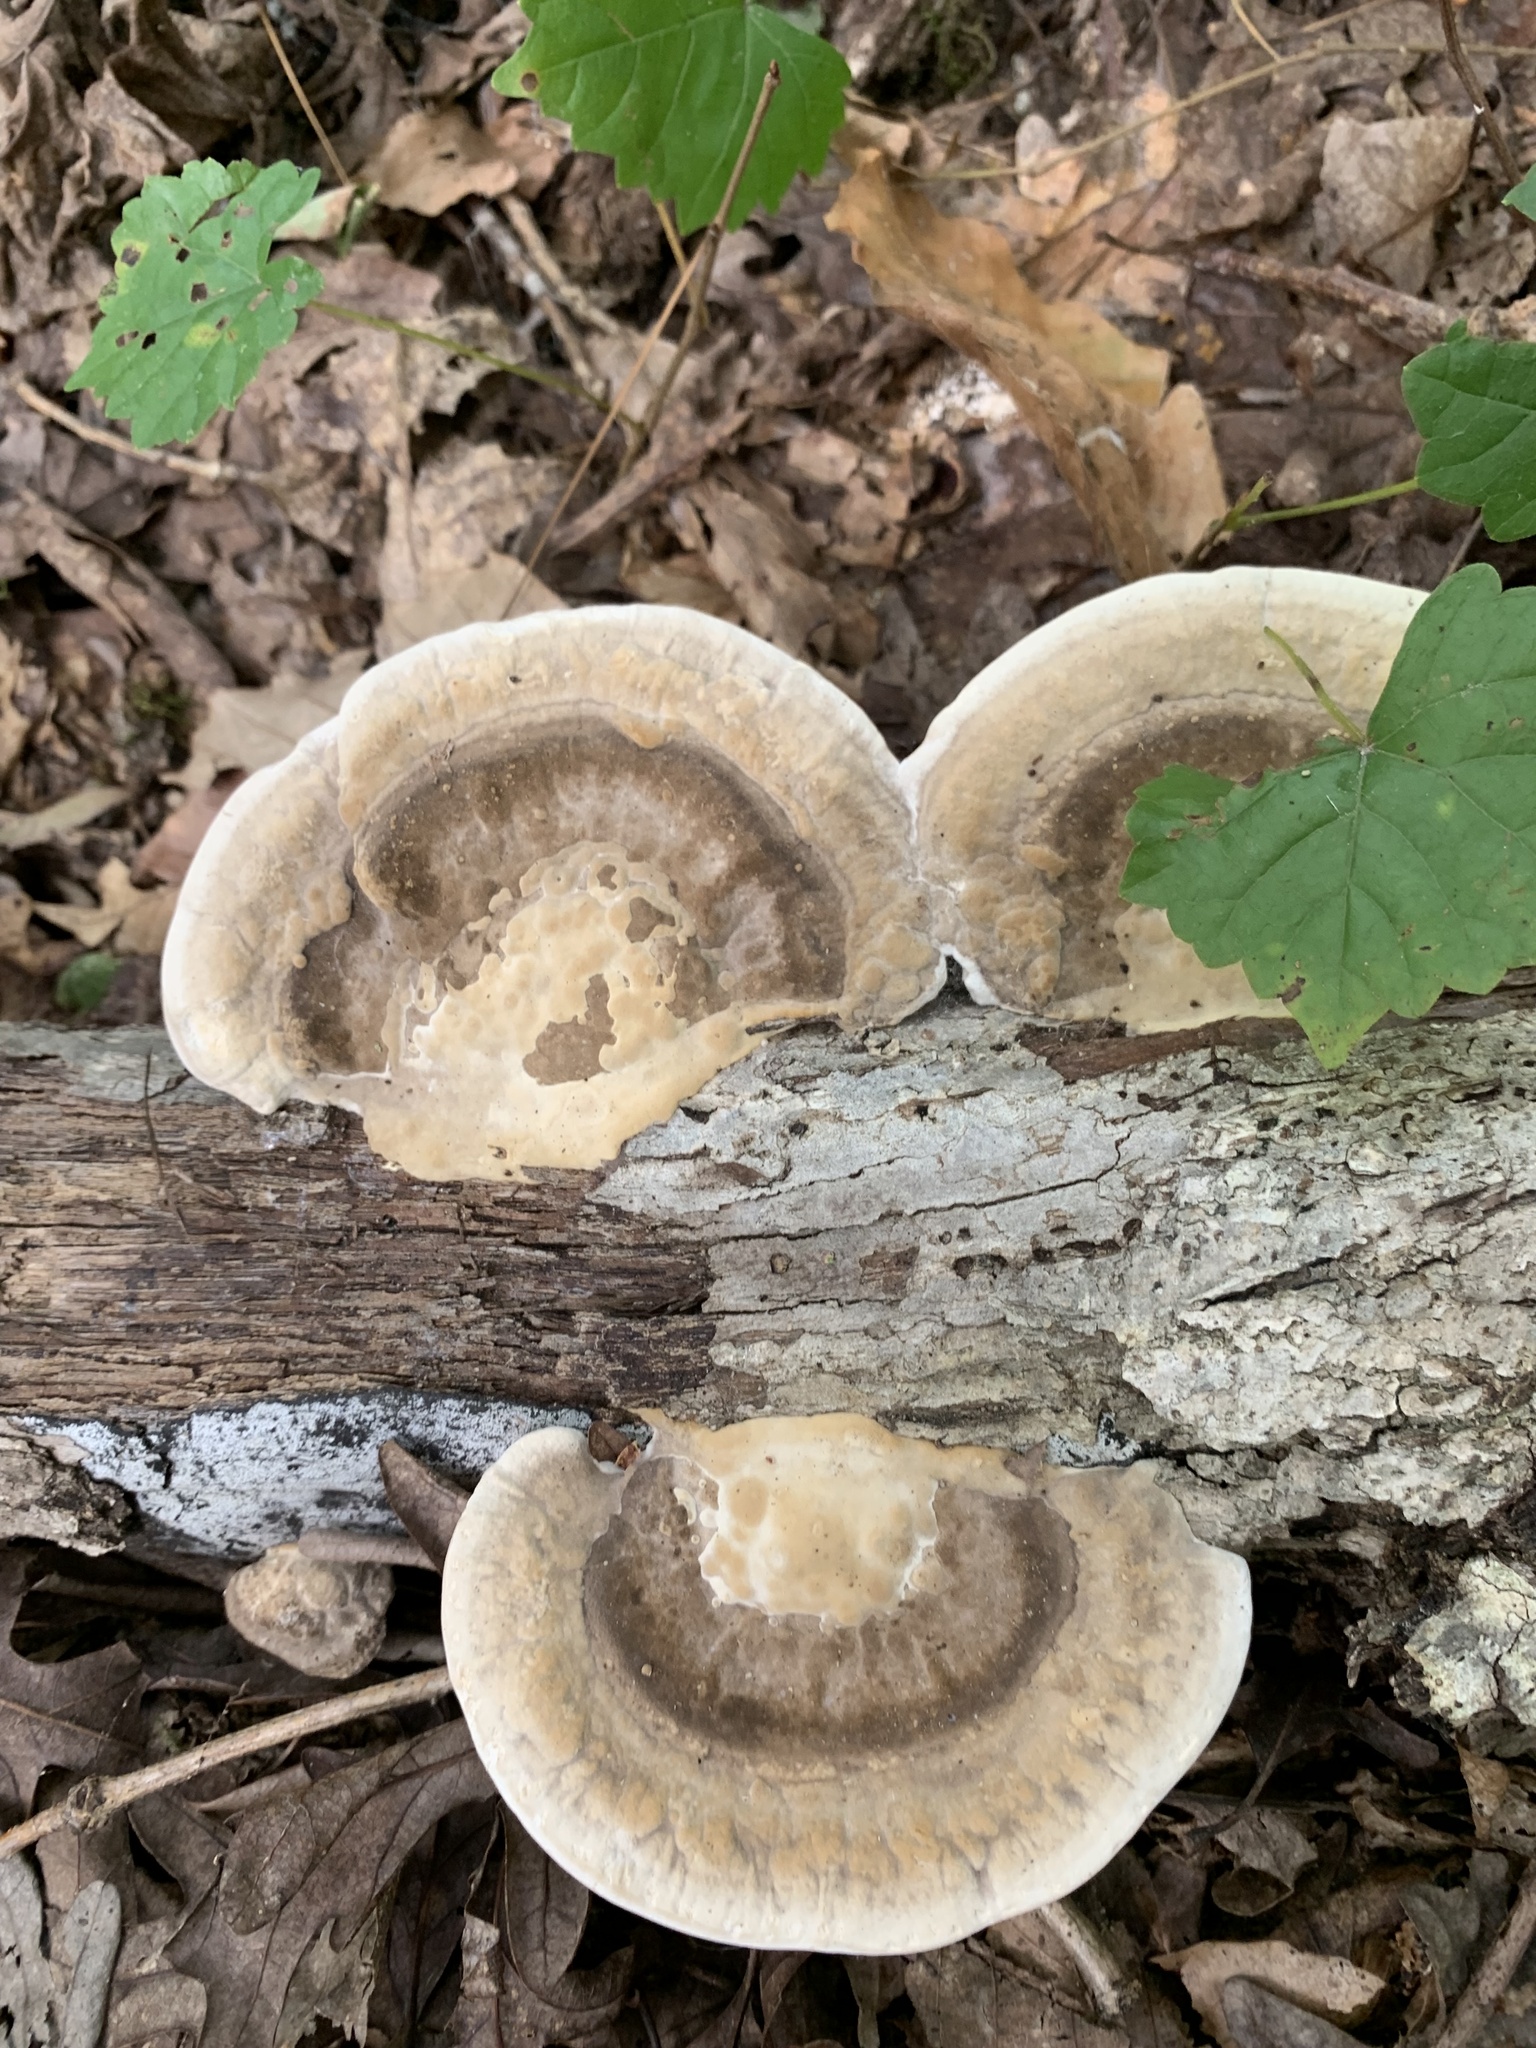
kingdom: Fungi
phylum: Basidiomycota
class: Agaricomycetes
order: Polyporales
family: Polyporaceae
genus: Trametes
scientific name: Trametes lactinea
